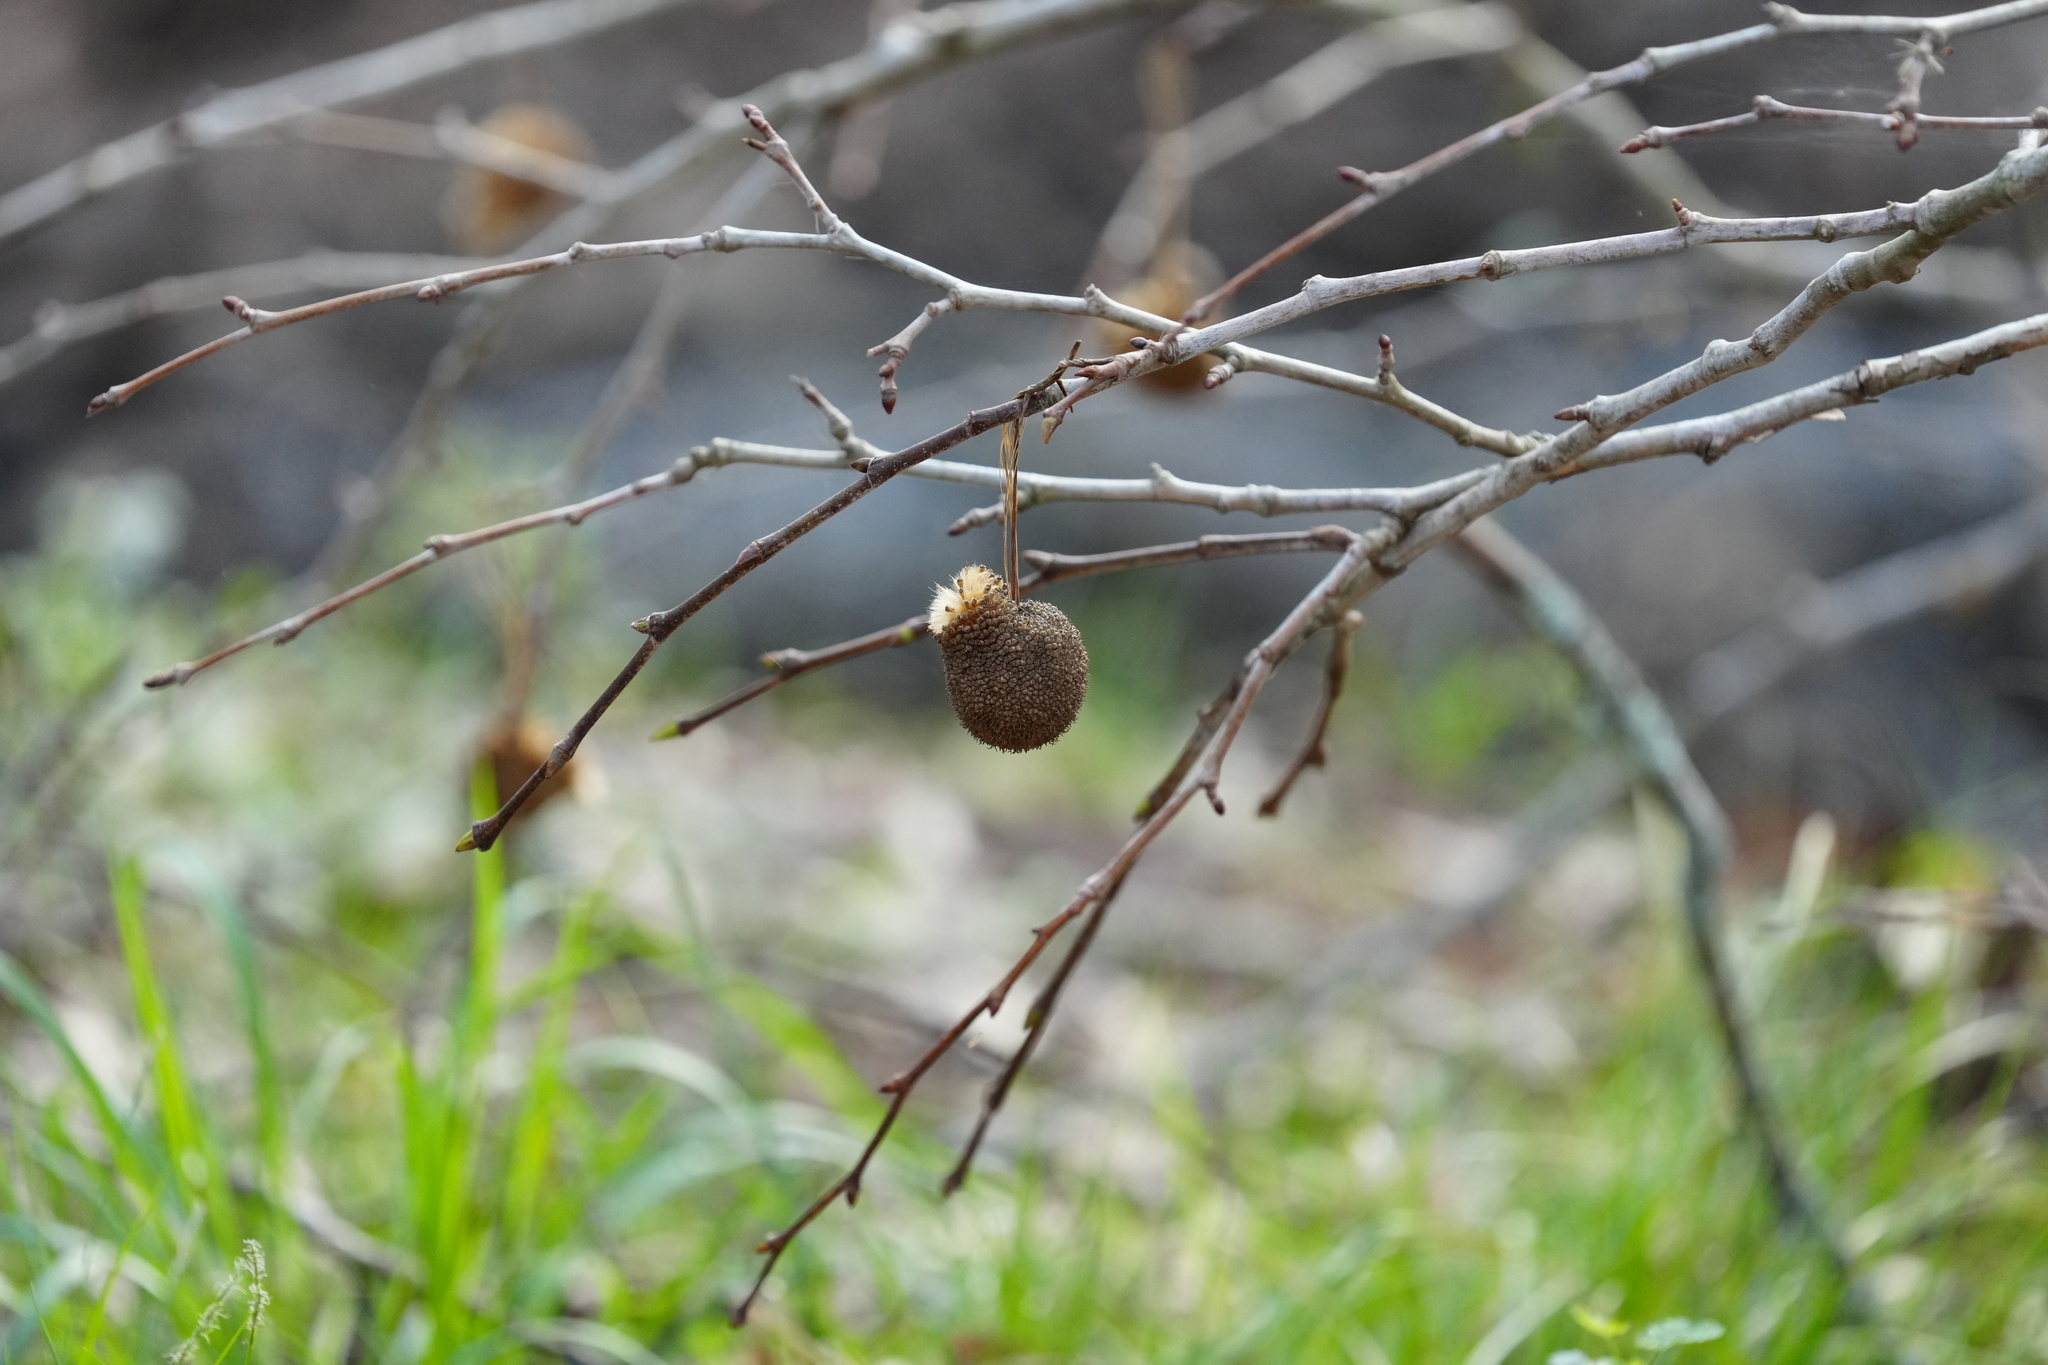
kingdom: Plantae
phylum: Tracheophyta
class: Magnoliopsida
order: Proteales
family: Platanaceae
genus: Platanus
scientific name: Platanus occidentalis
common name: American sycamore
